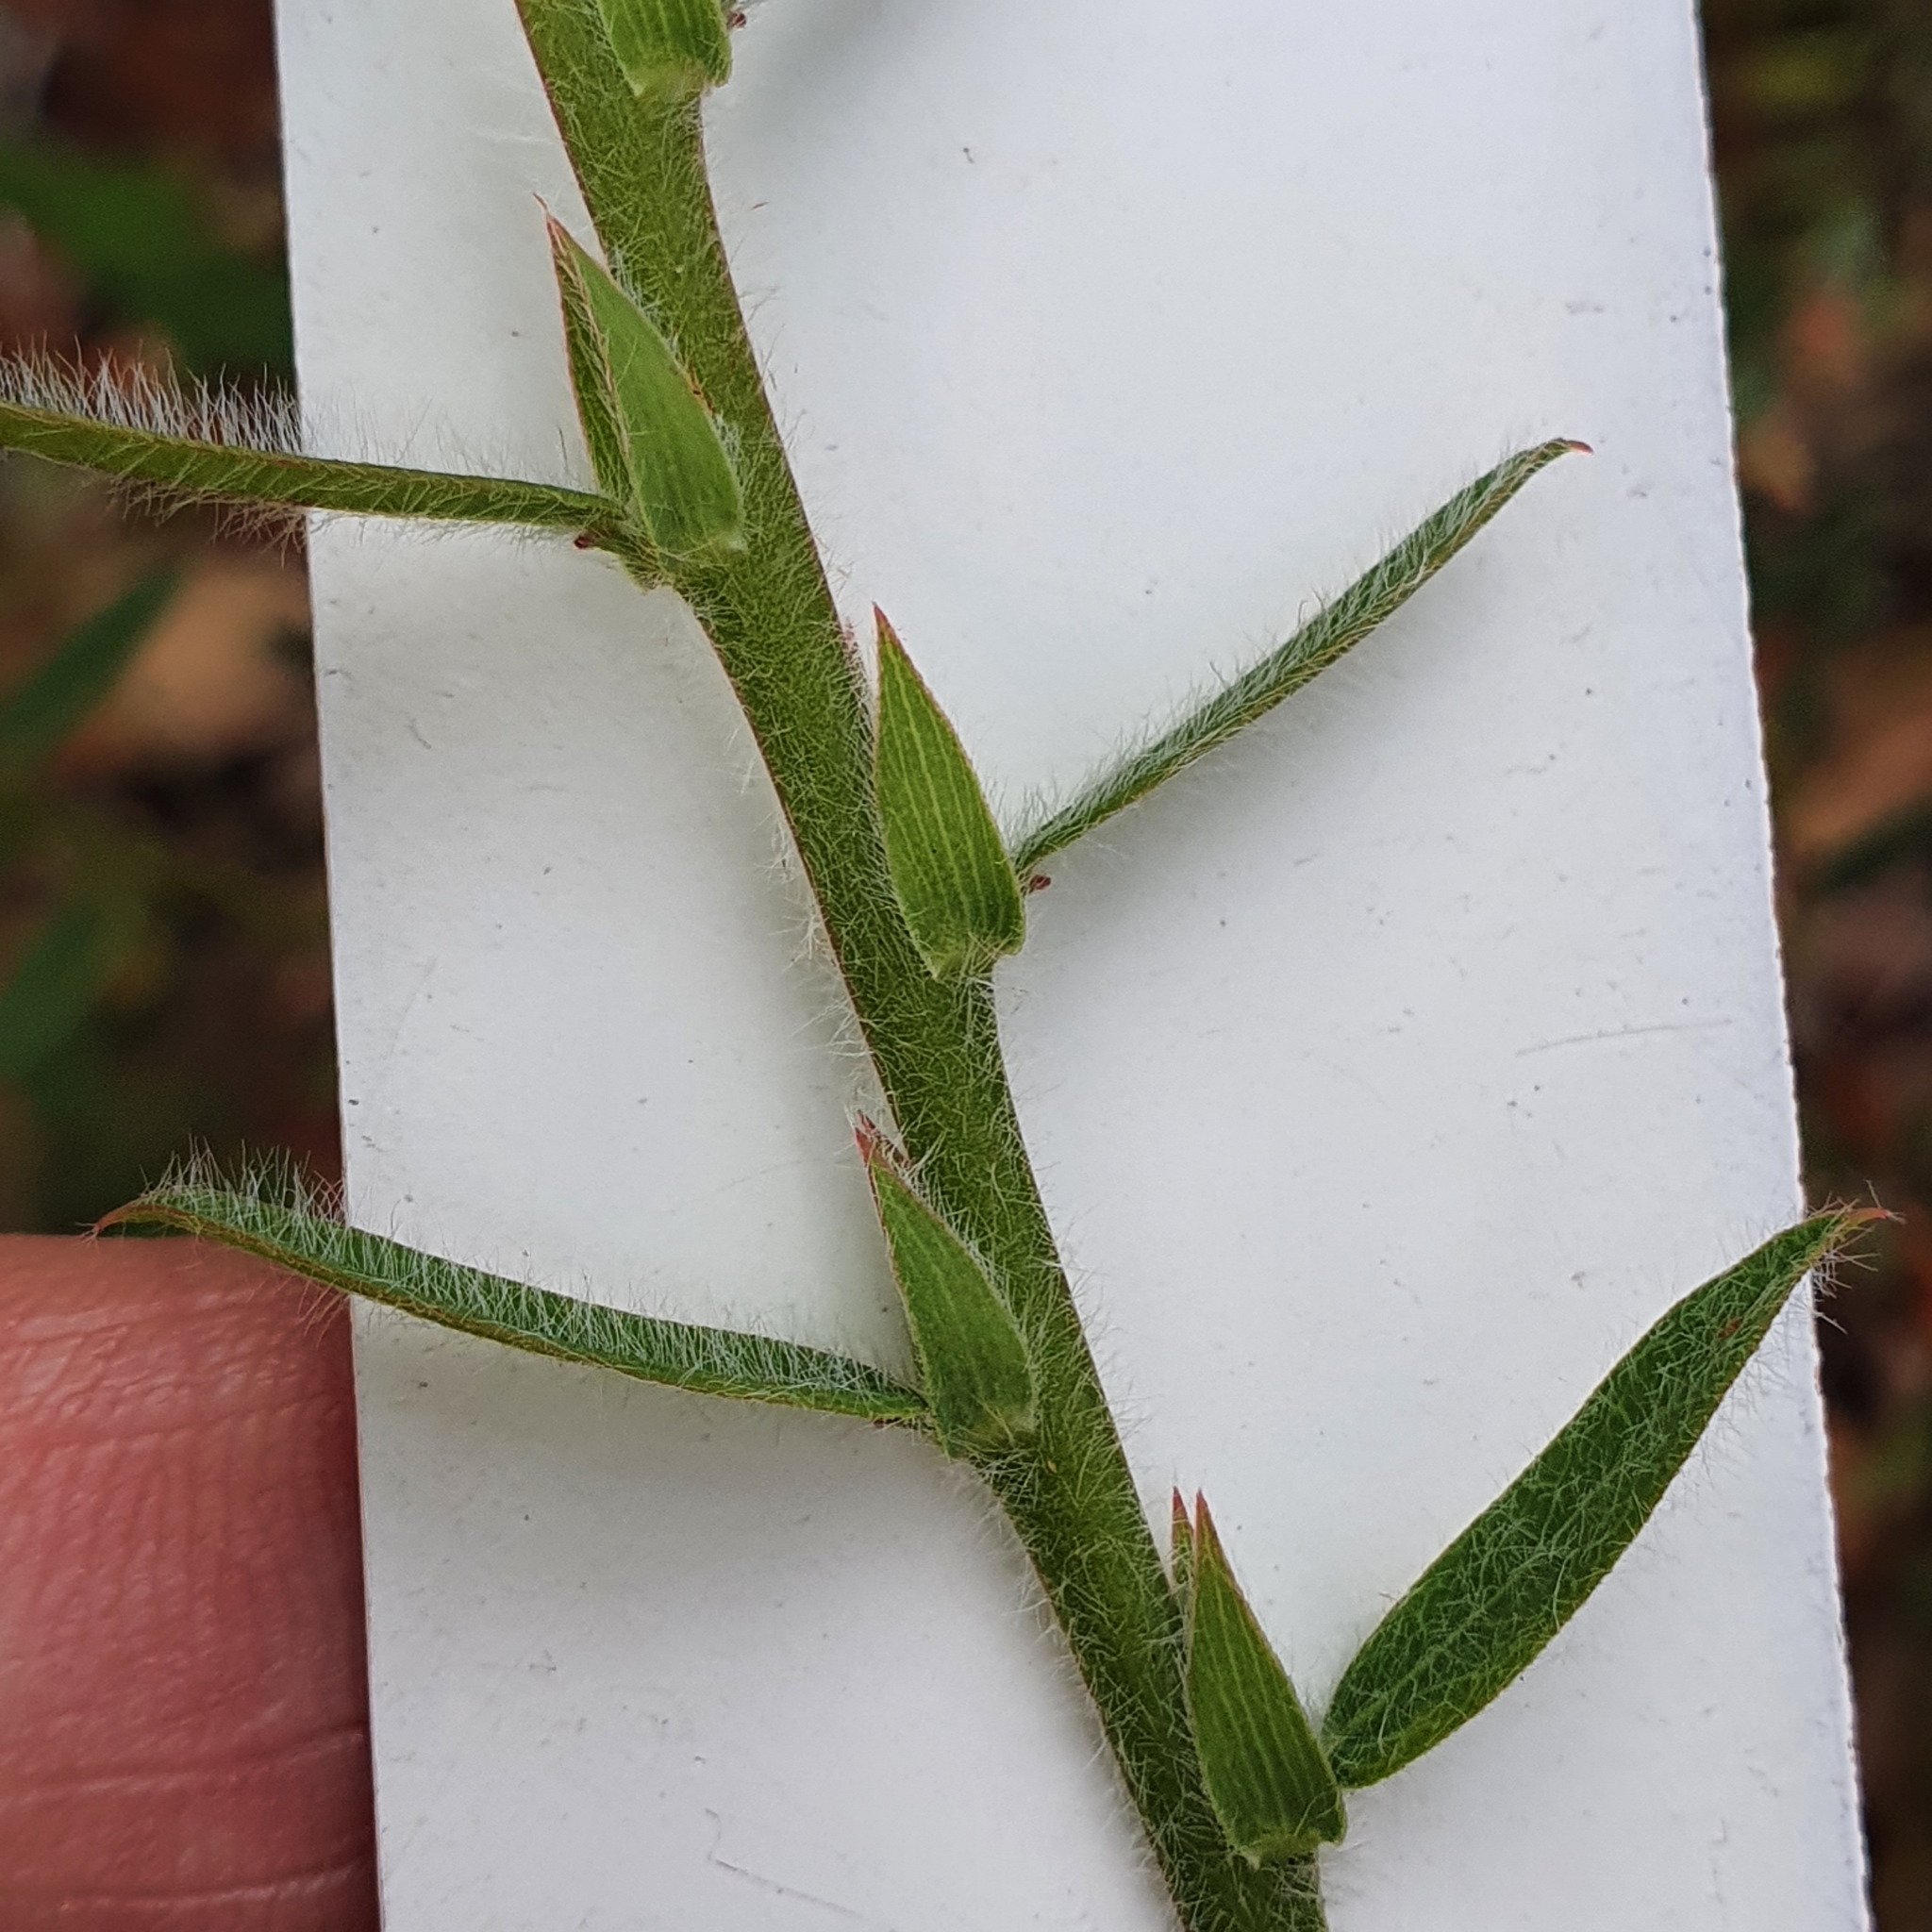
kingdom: Plantae
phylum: Tracheophyta
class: Magnoliopsida
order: Fabales
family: Fabaceae
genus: Bossiaea
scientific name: Bossiaea stephensonii
